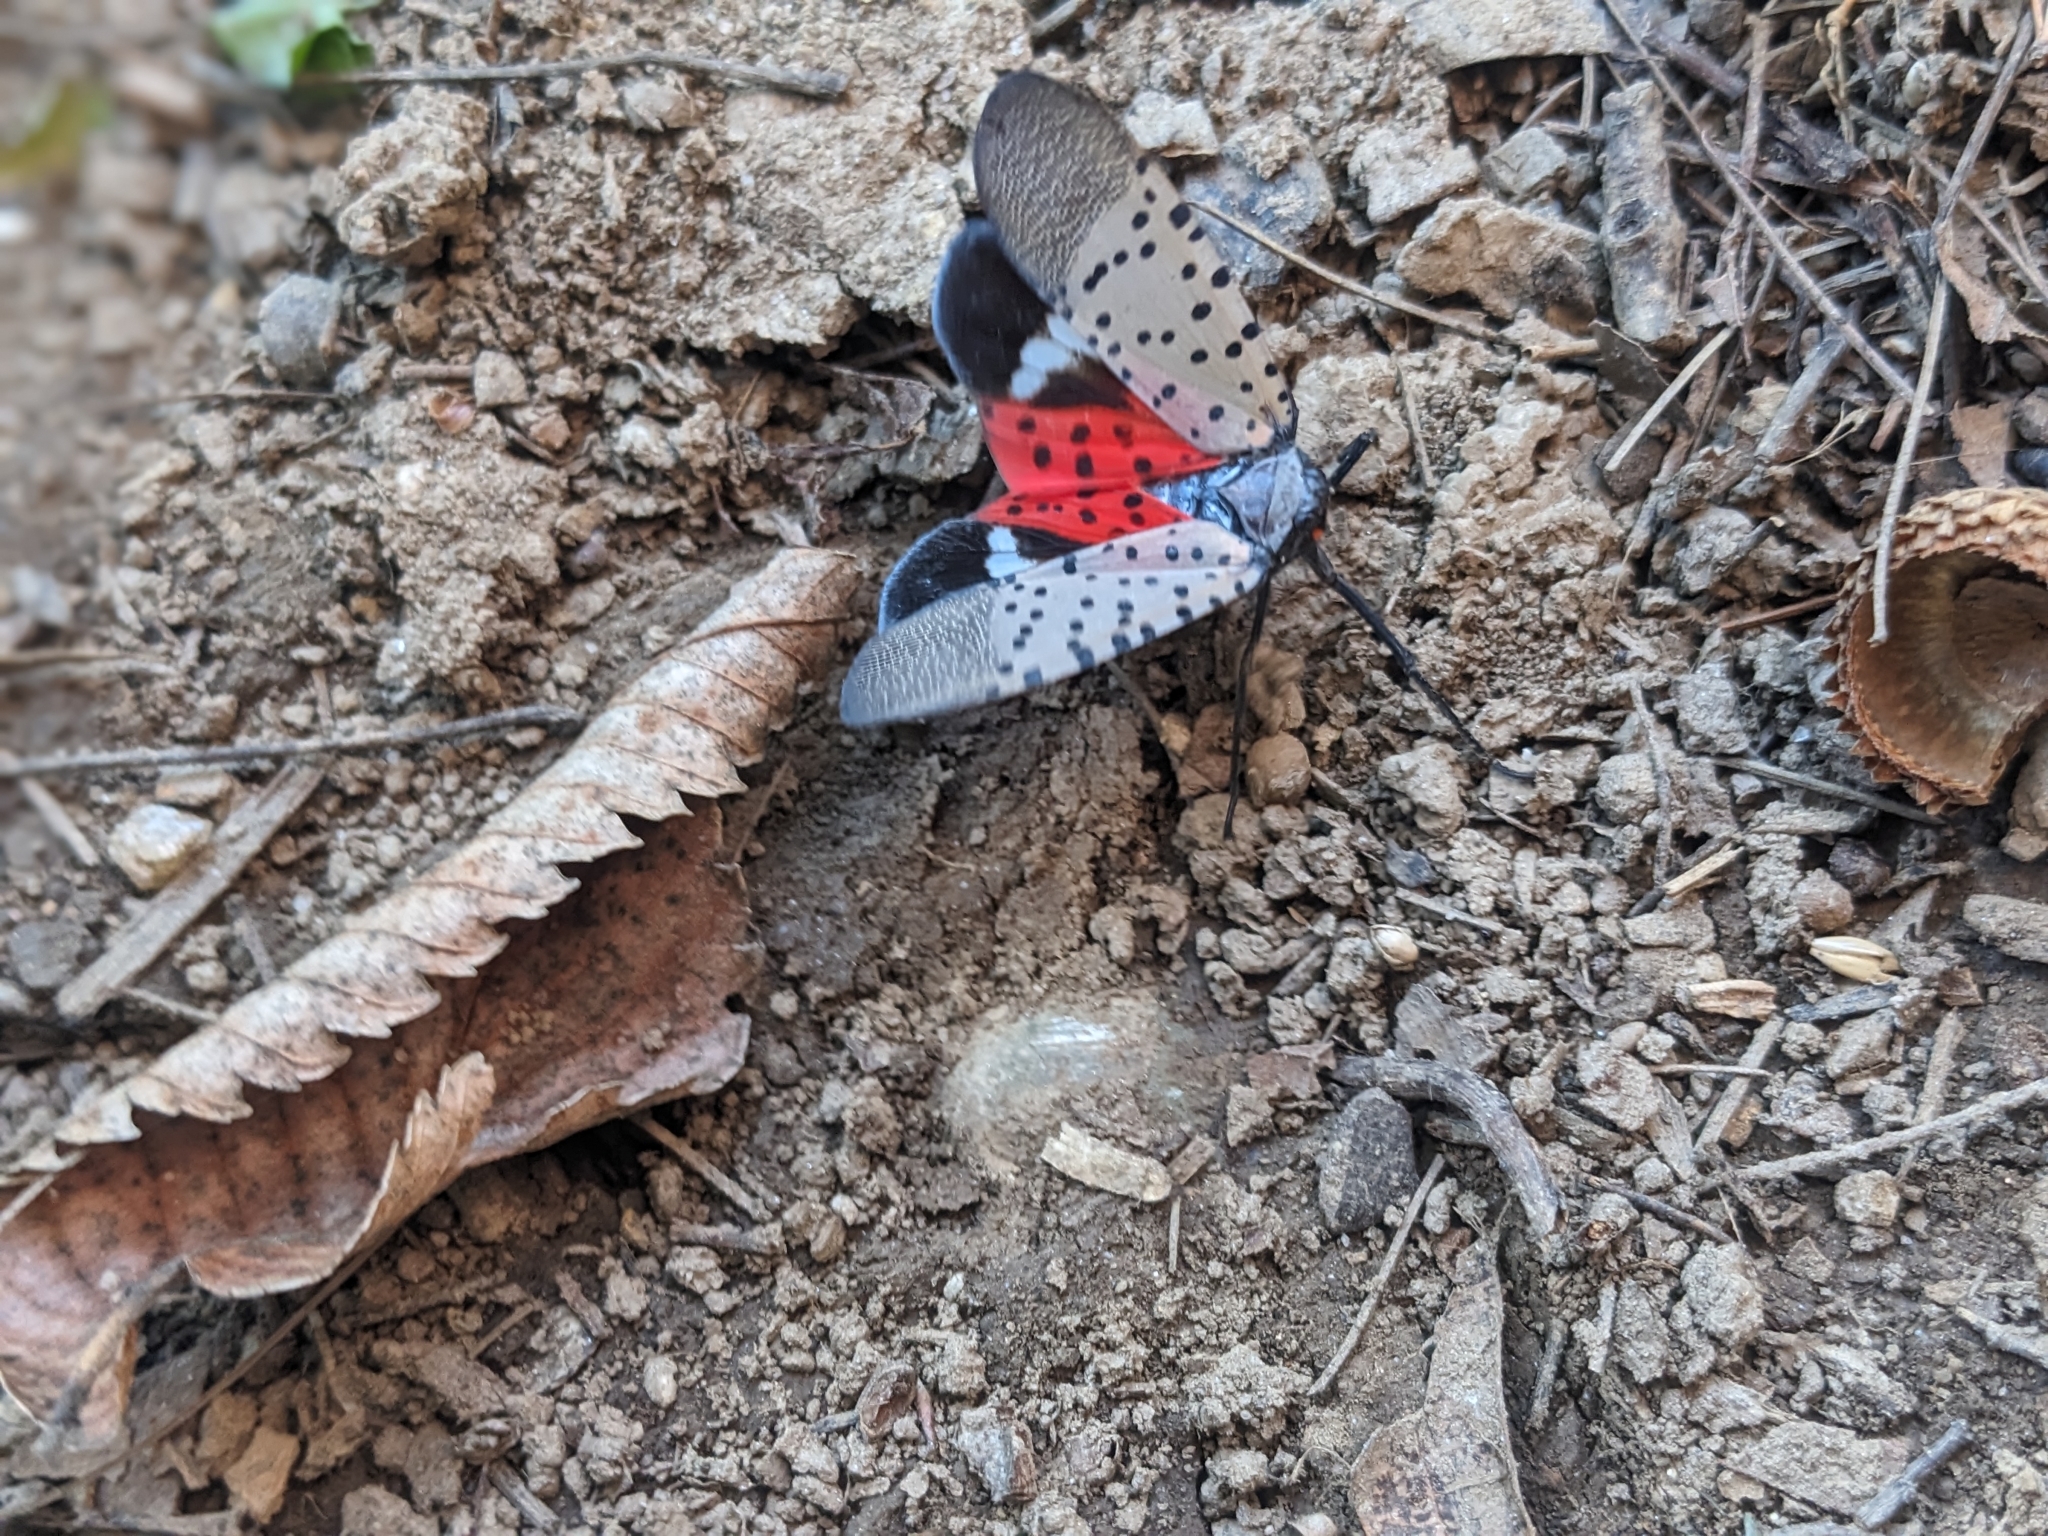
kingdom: Animalia
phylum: Arthropoda
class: Insecta
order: Hemiptera
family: Fulgoridae
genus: Lycorma
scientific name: Lycorma delicatula
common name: Spotted lanternfly
